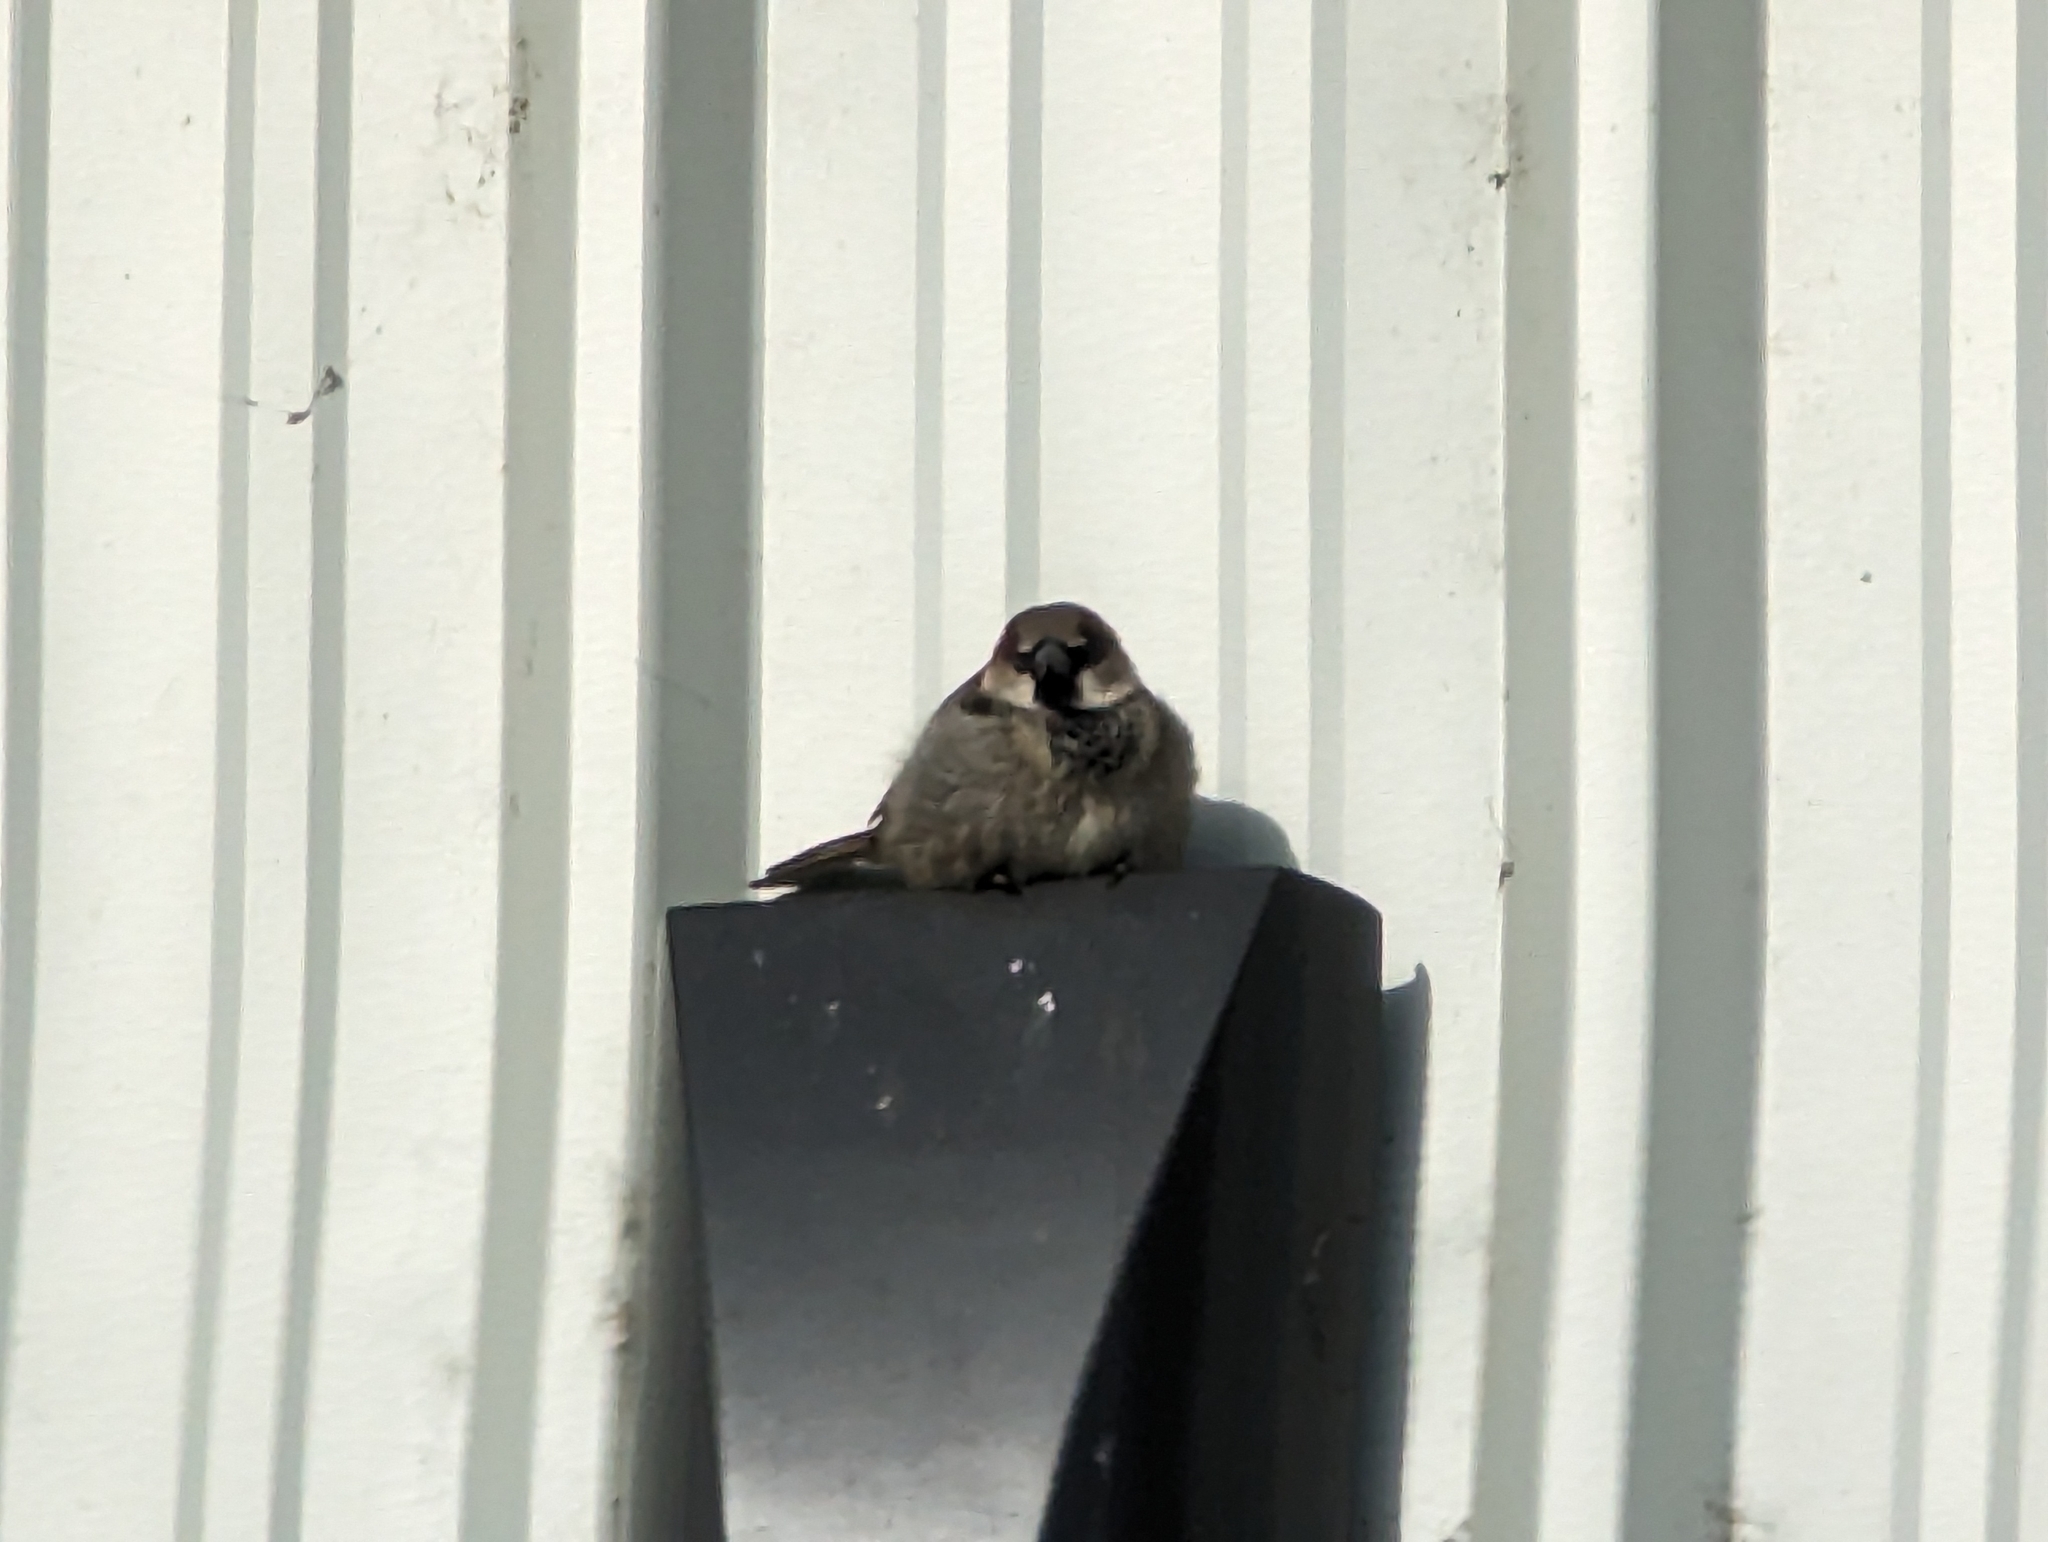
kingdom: Animalia
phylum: Chordata
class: Aves
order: Passeriformes
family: Passeridae
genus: Passer
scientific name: Passer domesticus
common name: House sparrow
